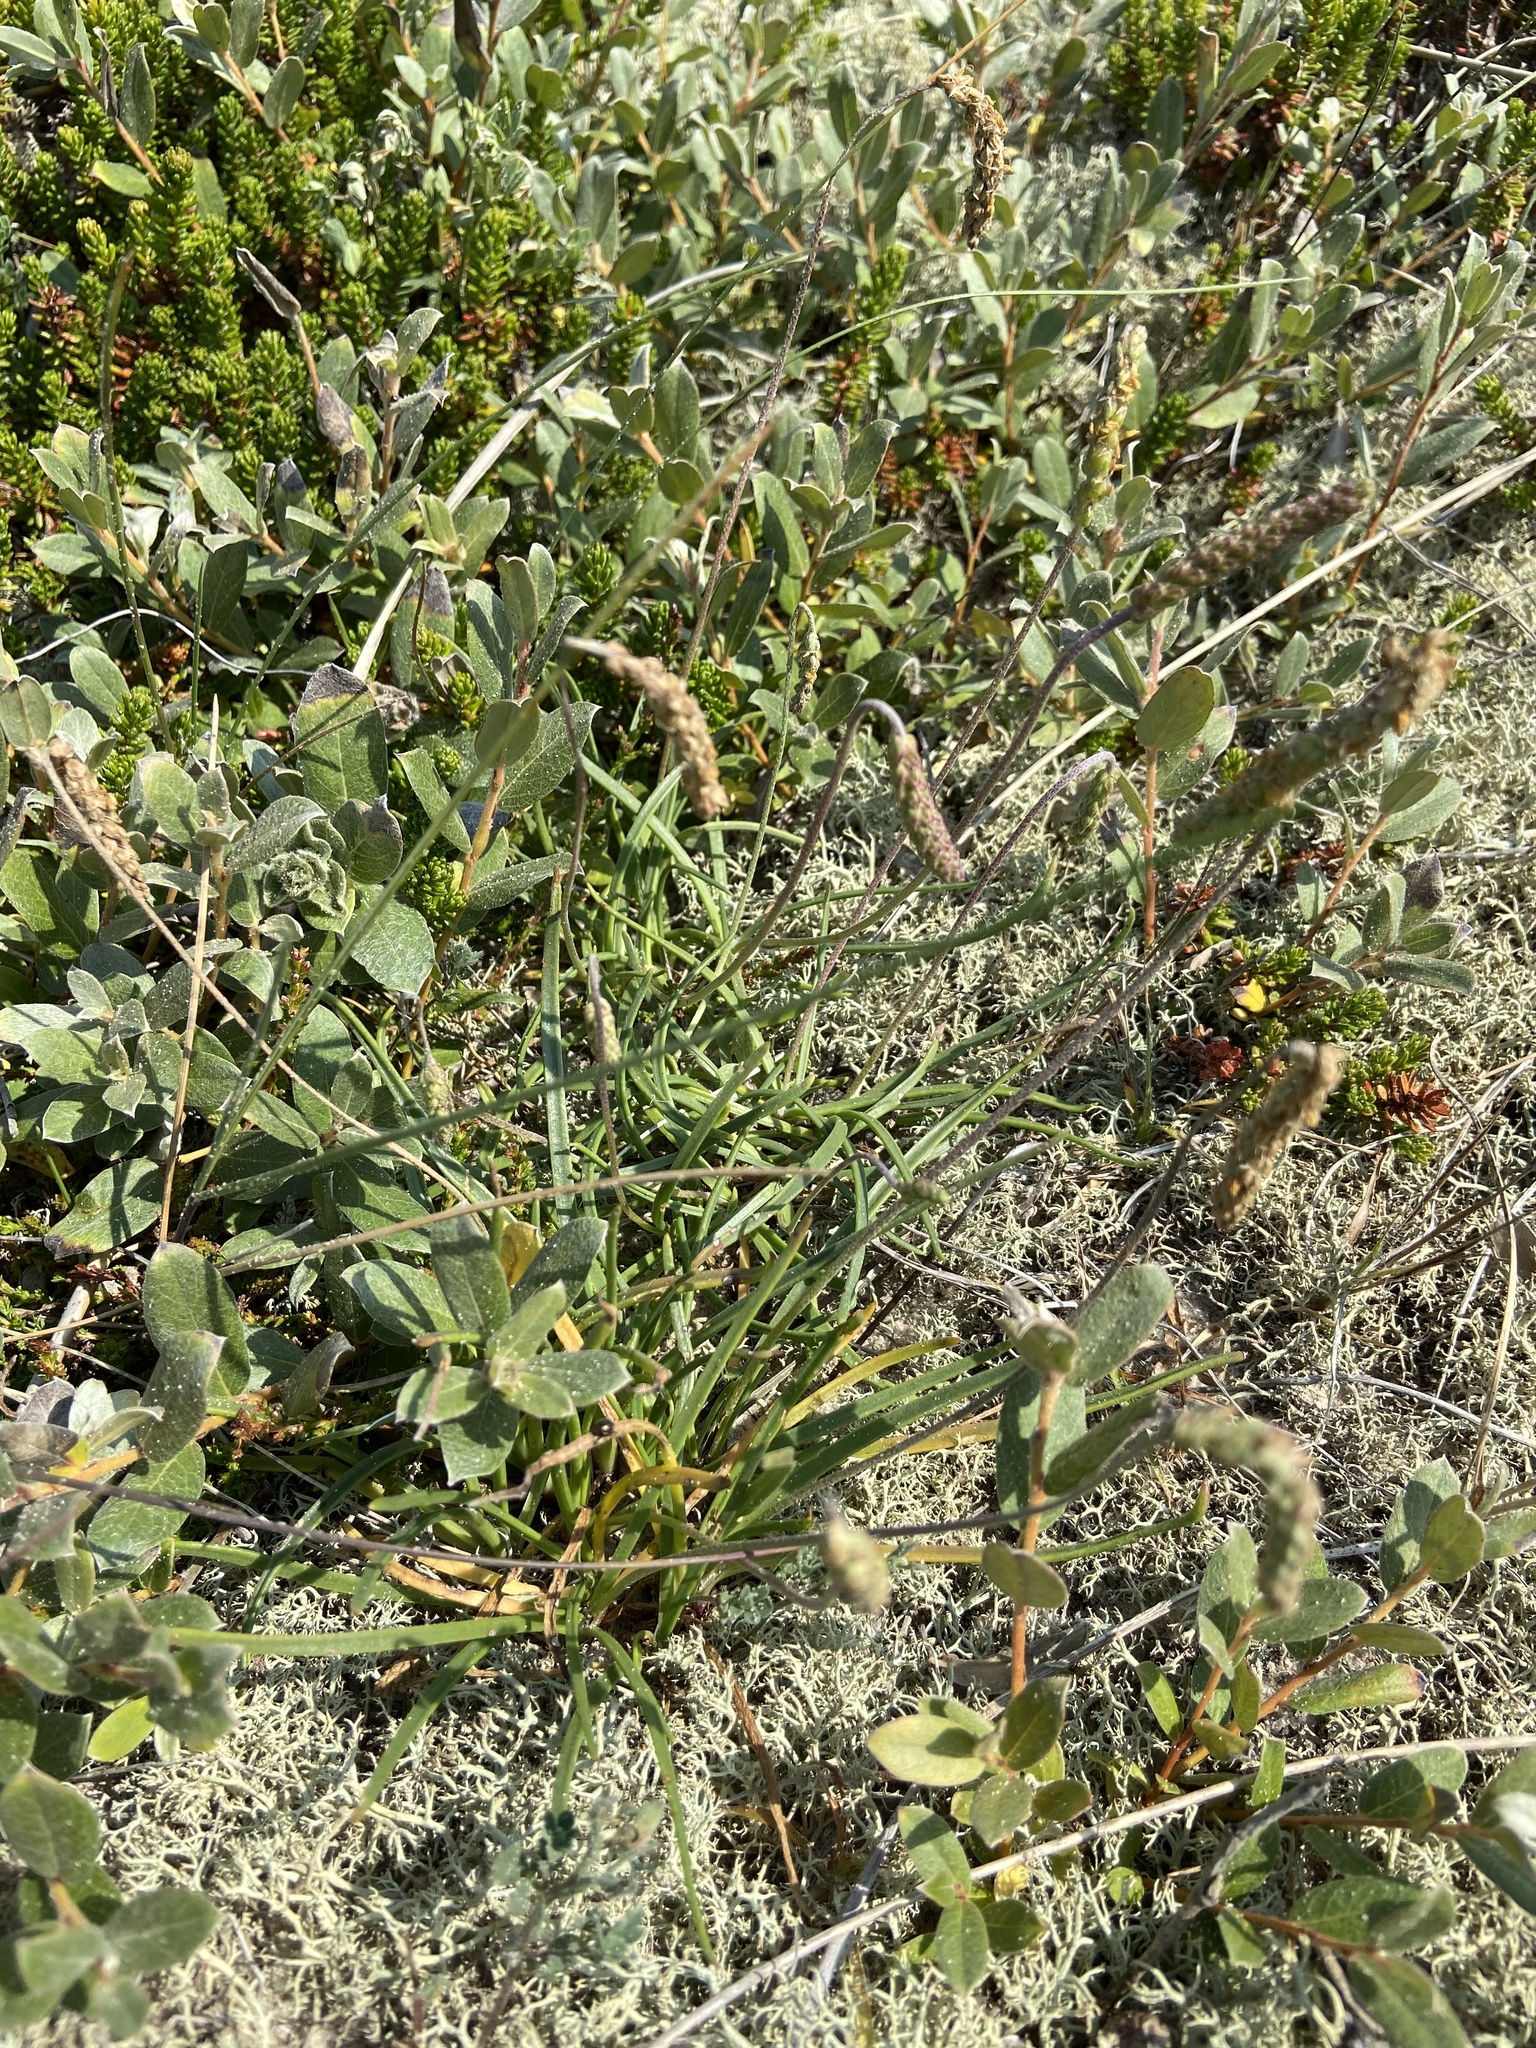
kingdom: Plantae
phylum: Tracheophyta
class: Magnoliopsida
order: Lamiales
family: Plantaginaceae
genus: Plantago
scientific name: Plantago maritima
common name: Sea plantain
